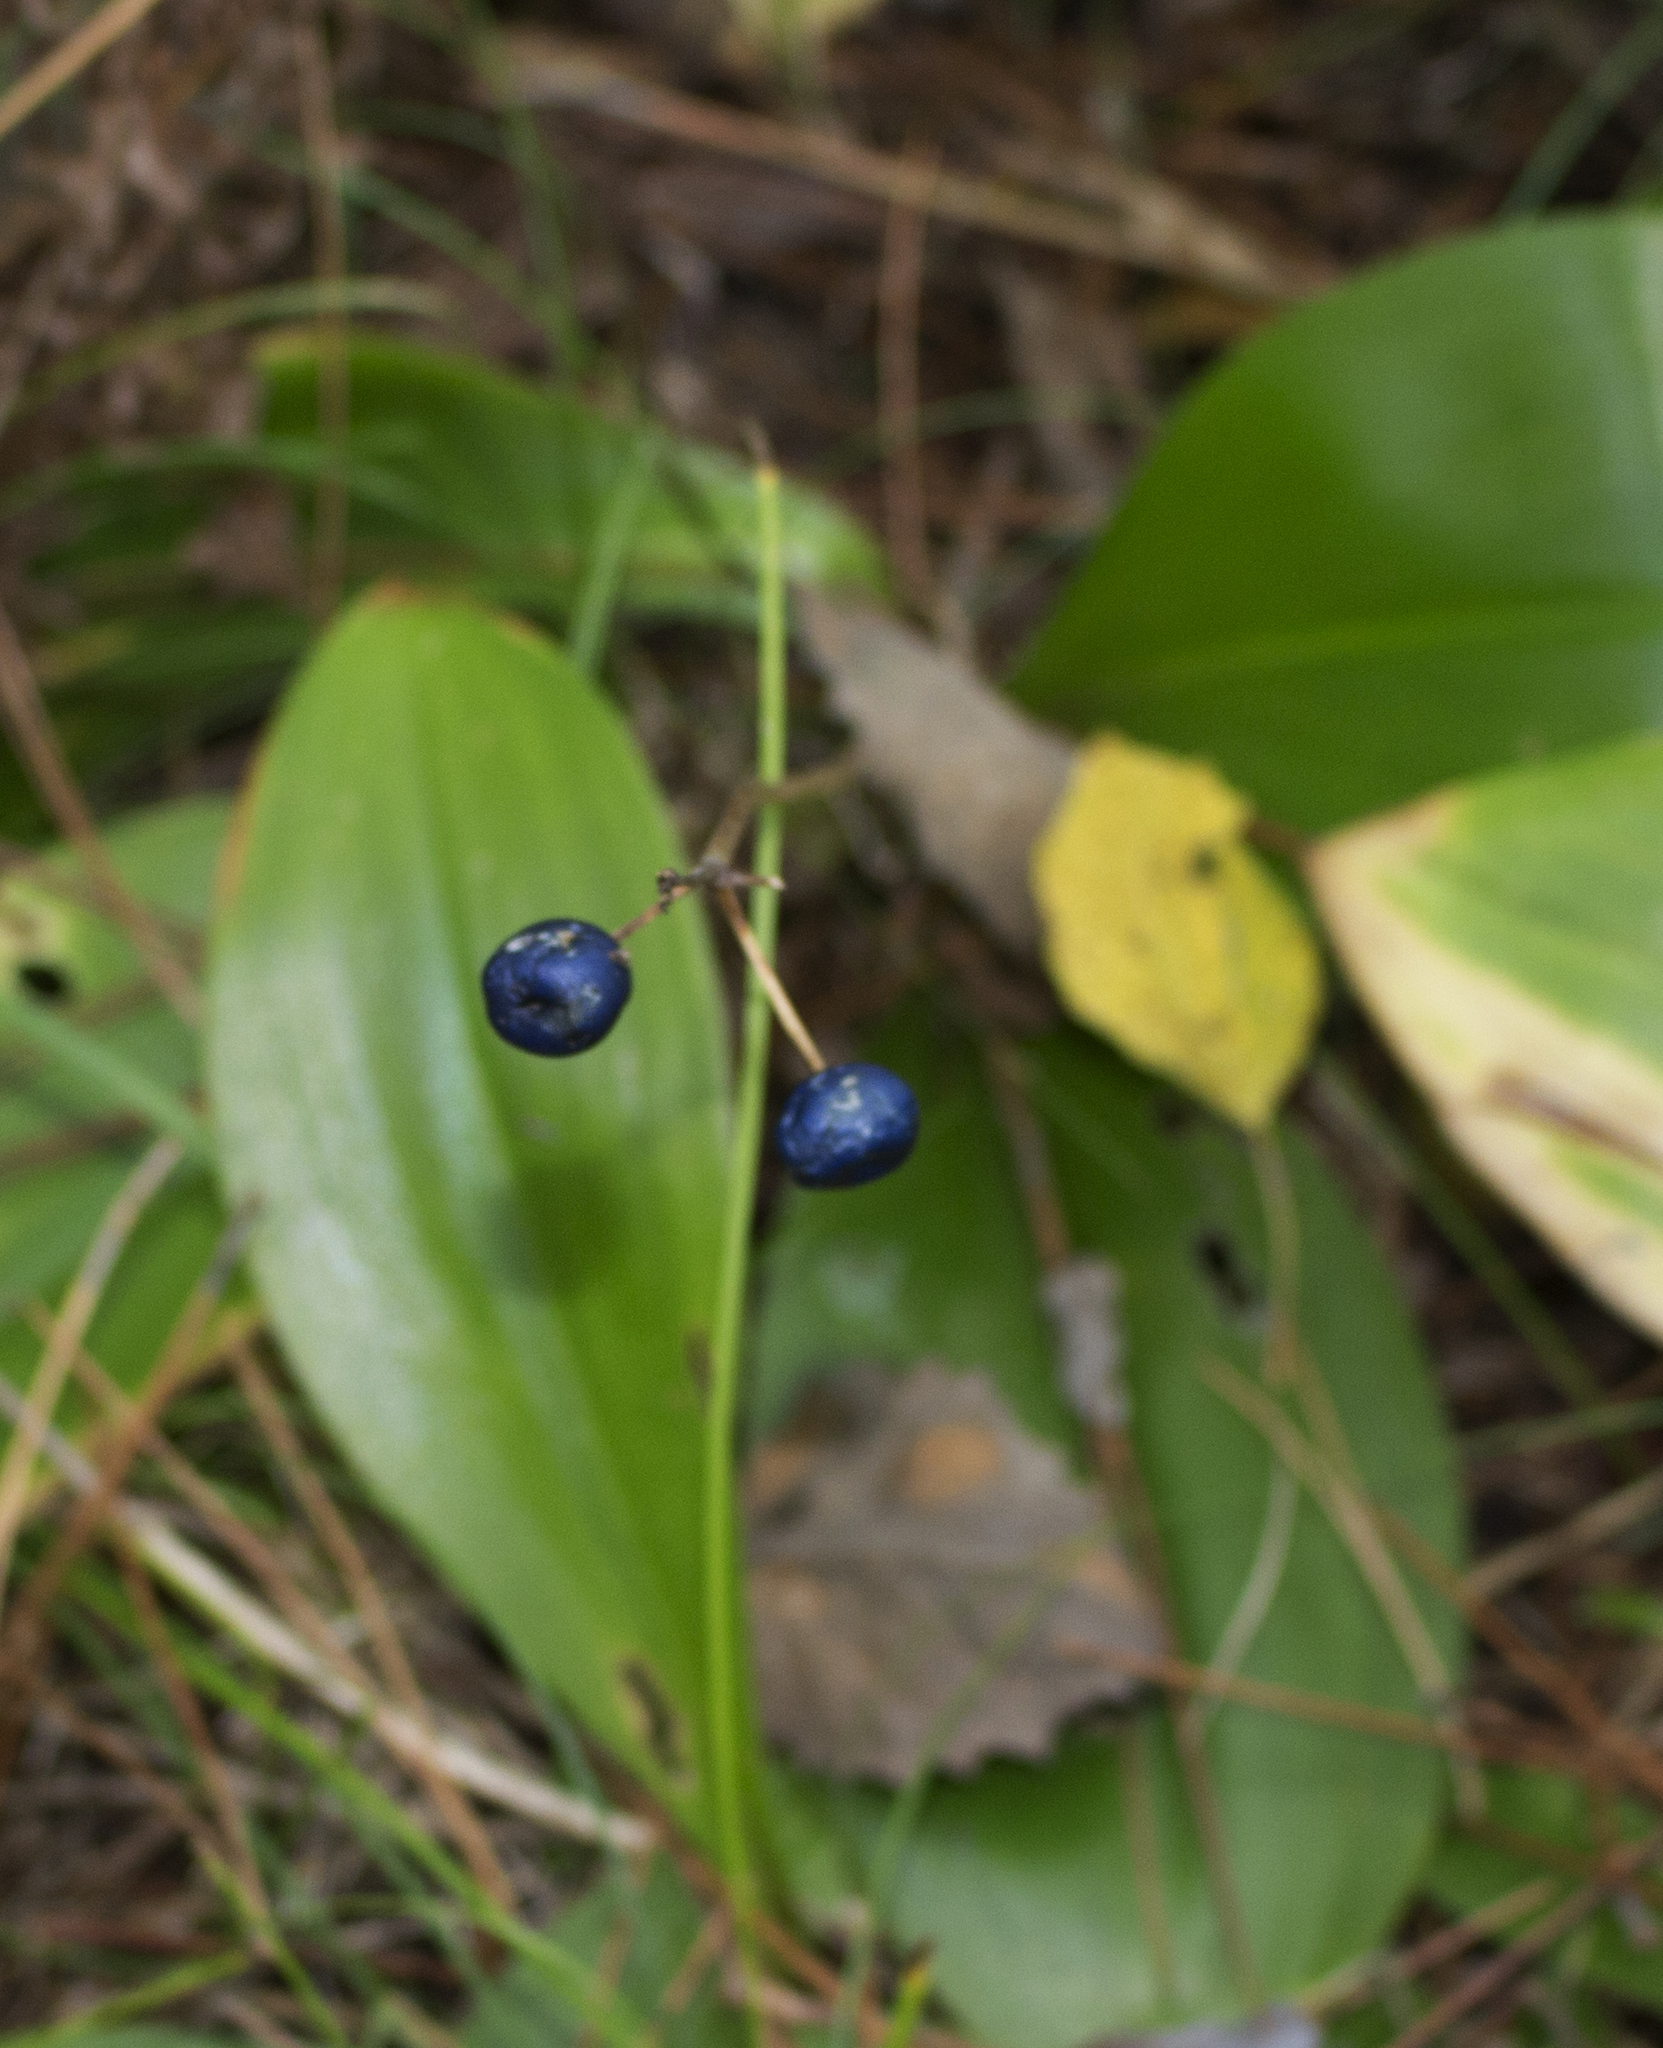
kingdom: Plantae
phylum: Tracheophyta
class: Liliopsida
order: Liliales
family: Liliaceae
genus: Clintonia
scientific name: Clintonia borealis
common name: Yellow clintonia
